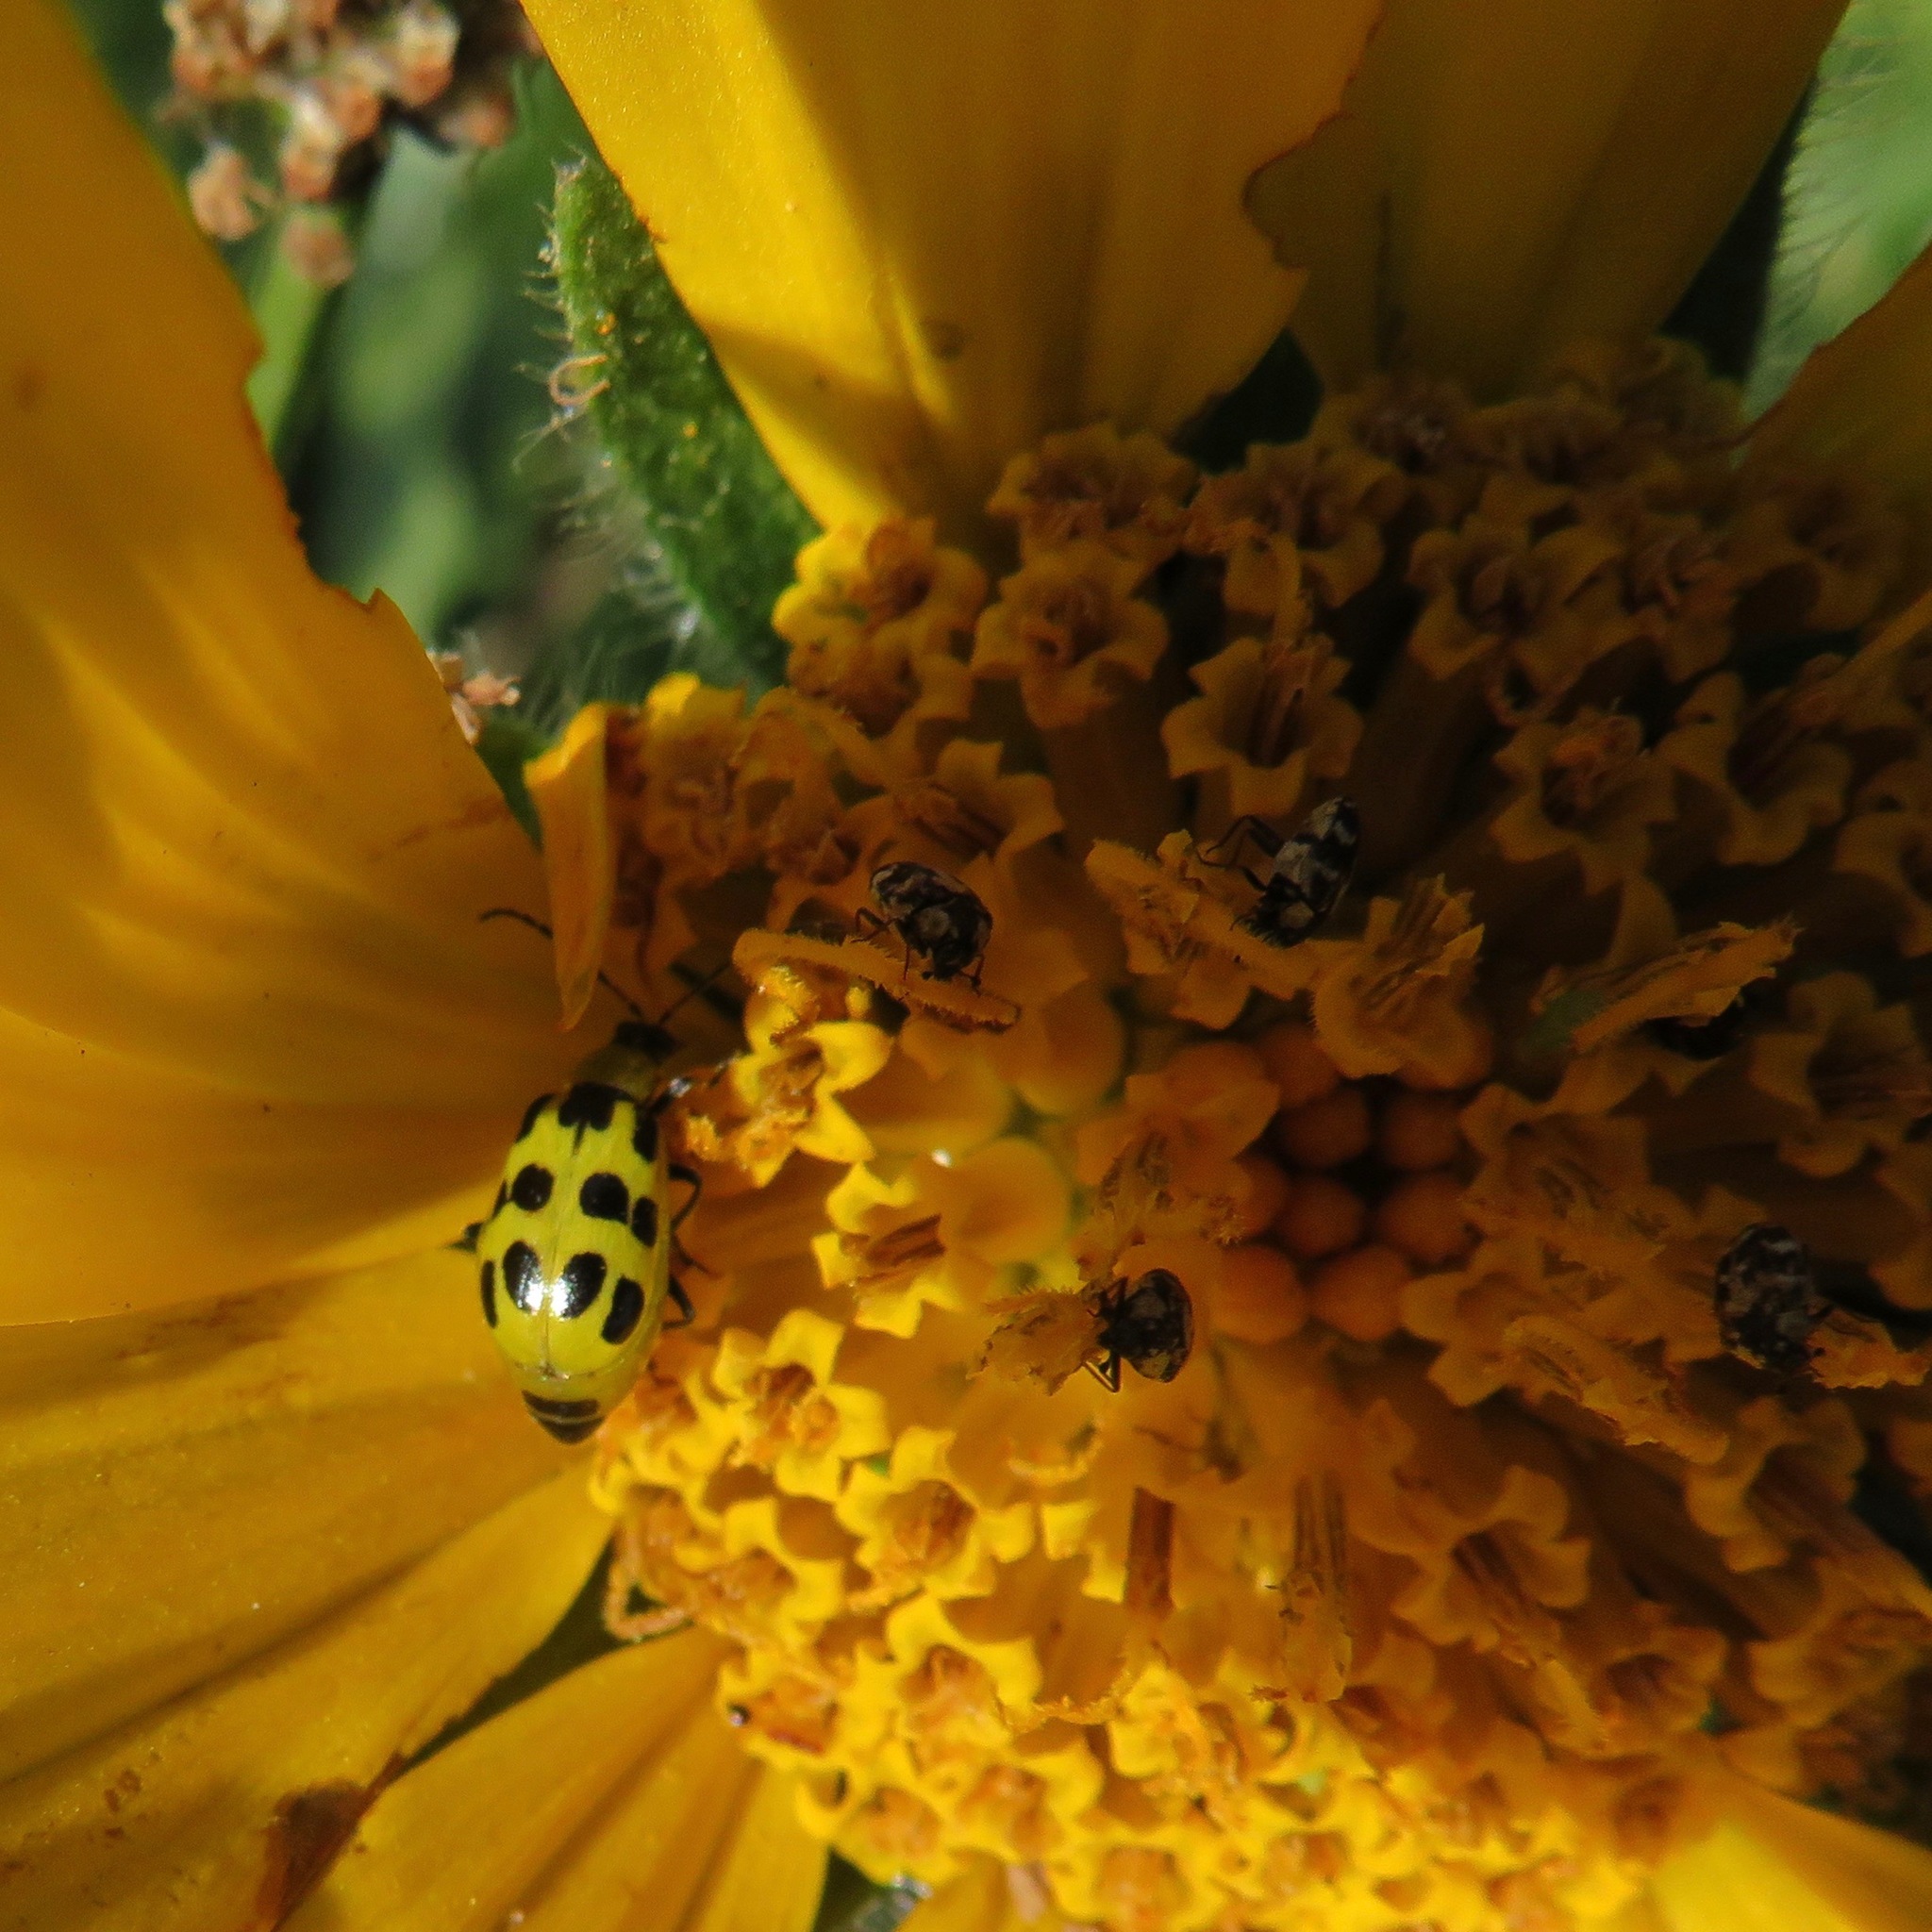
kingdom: Animalia
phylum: Arthropoda
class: Insecta
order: Coleoptera
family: Chrysomelidae
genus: Diabrotica
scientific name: Diabrotica undecimpunctata
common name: Spotted cucumber beetle
